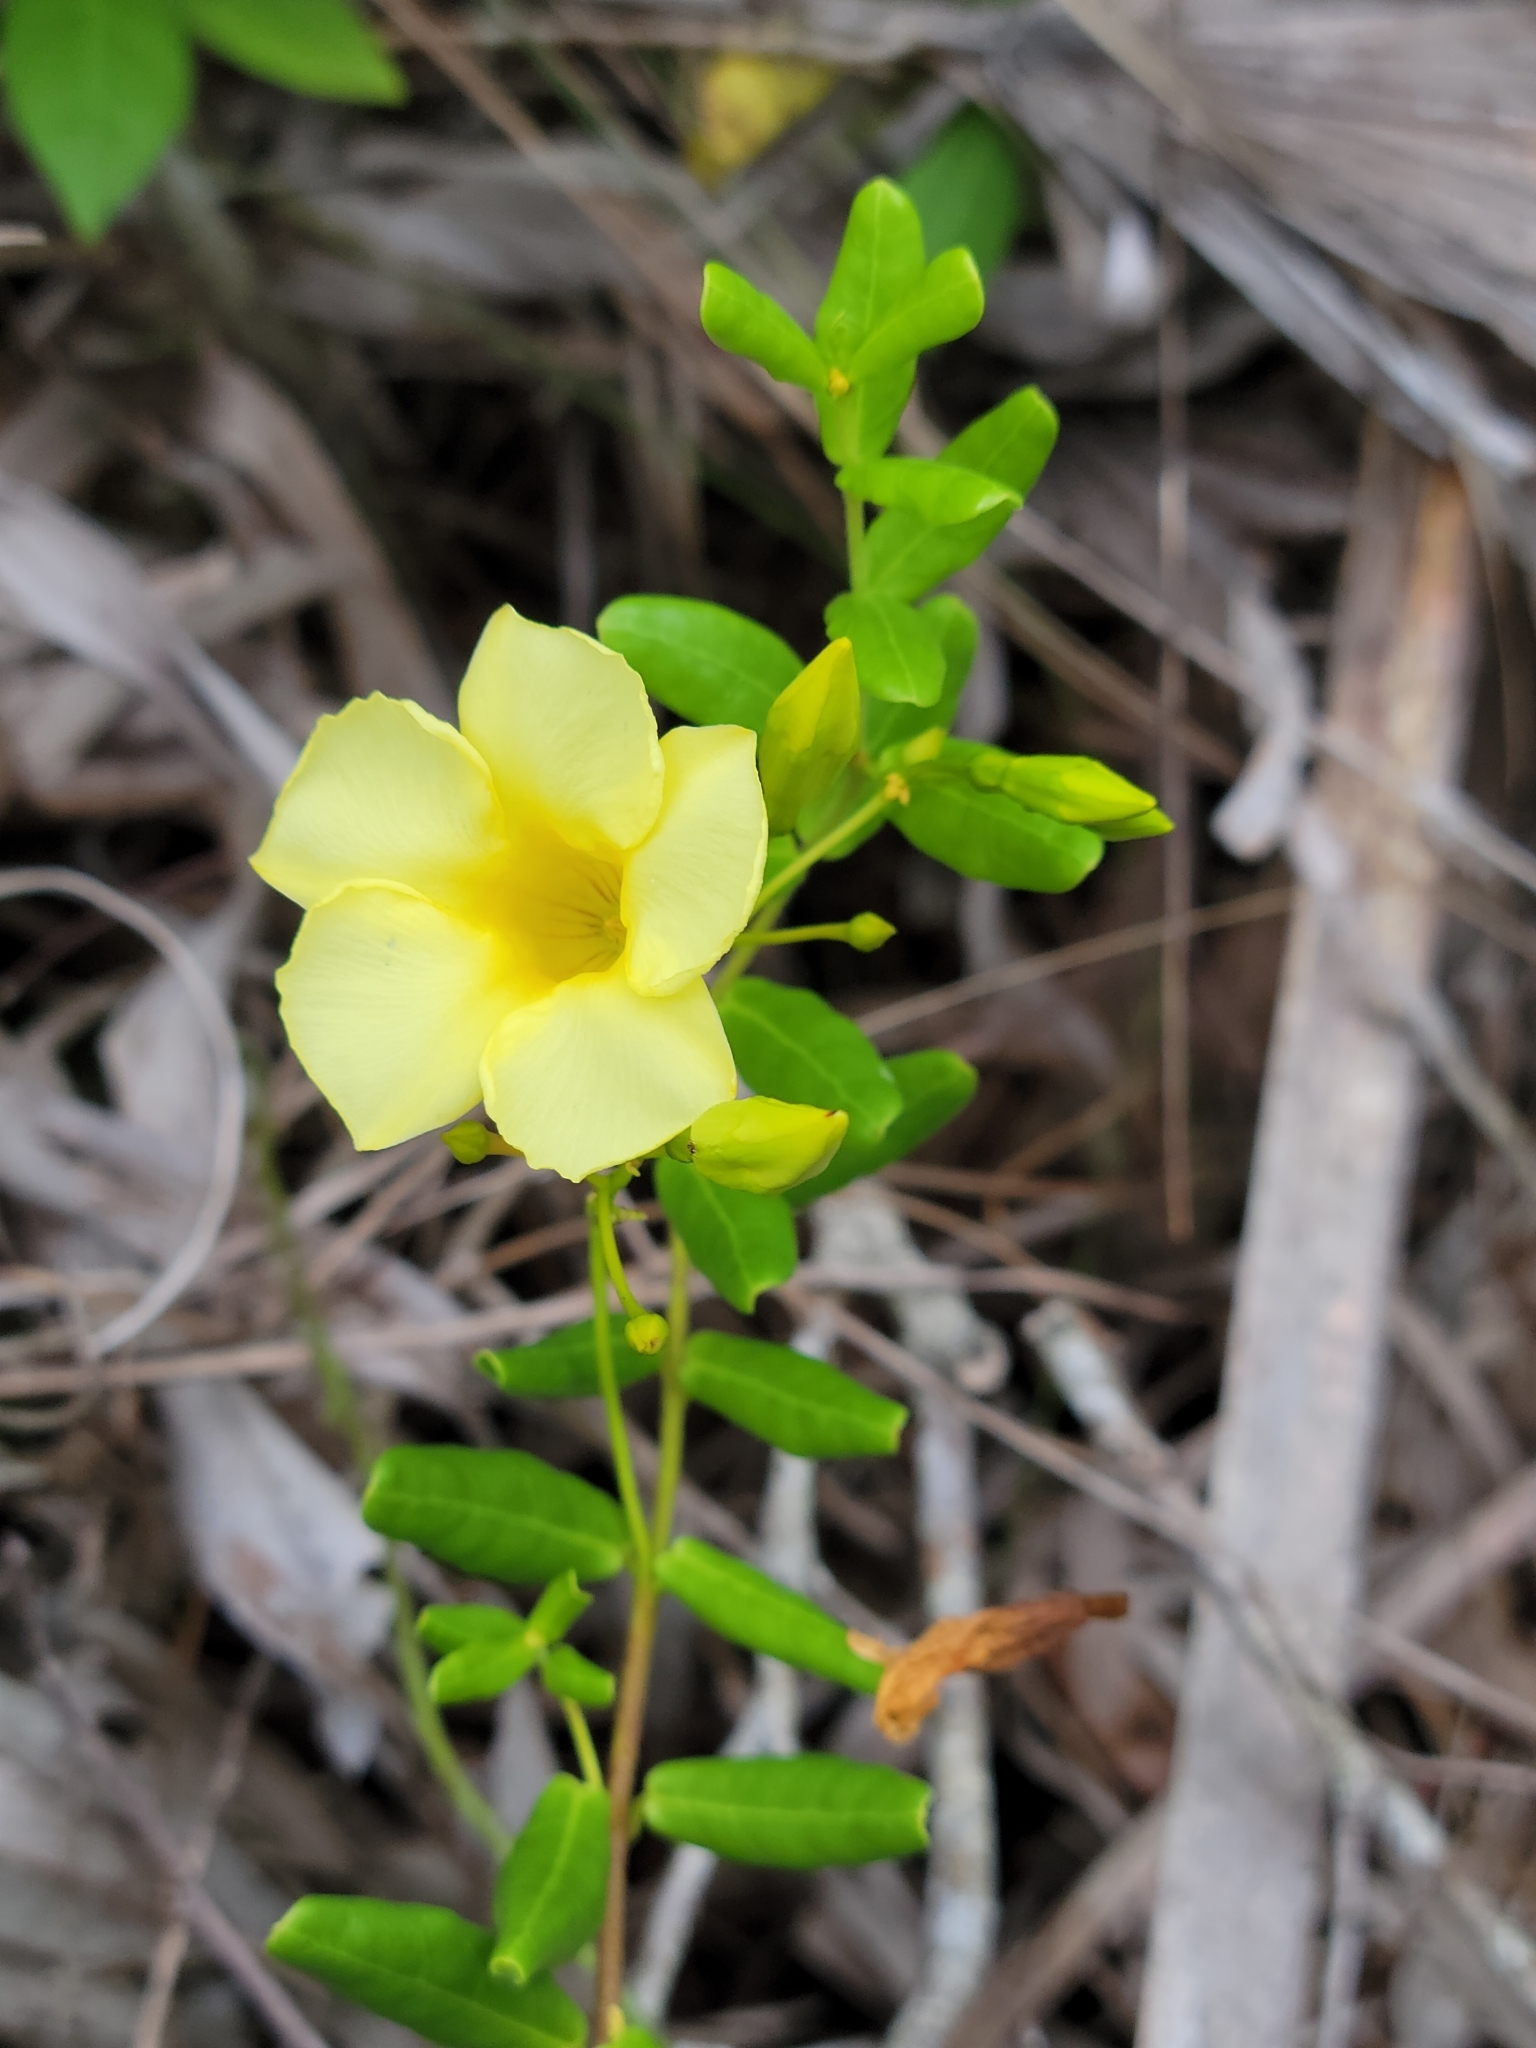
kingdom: Plantae
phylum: Tracheophyta
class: Magnoliopsida
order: Gentianales
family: Apocynaceae
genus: Angadenia
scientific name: Angadenia berteroi
